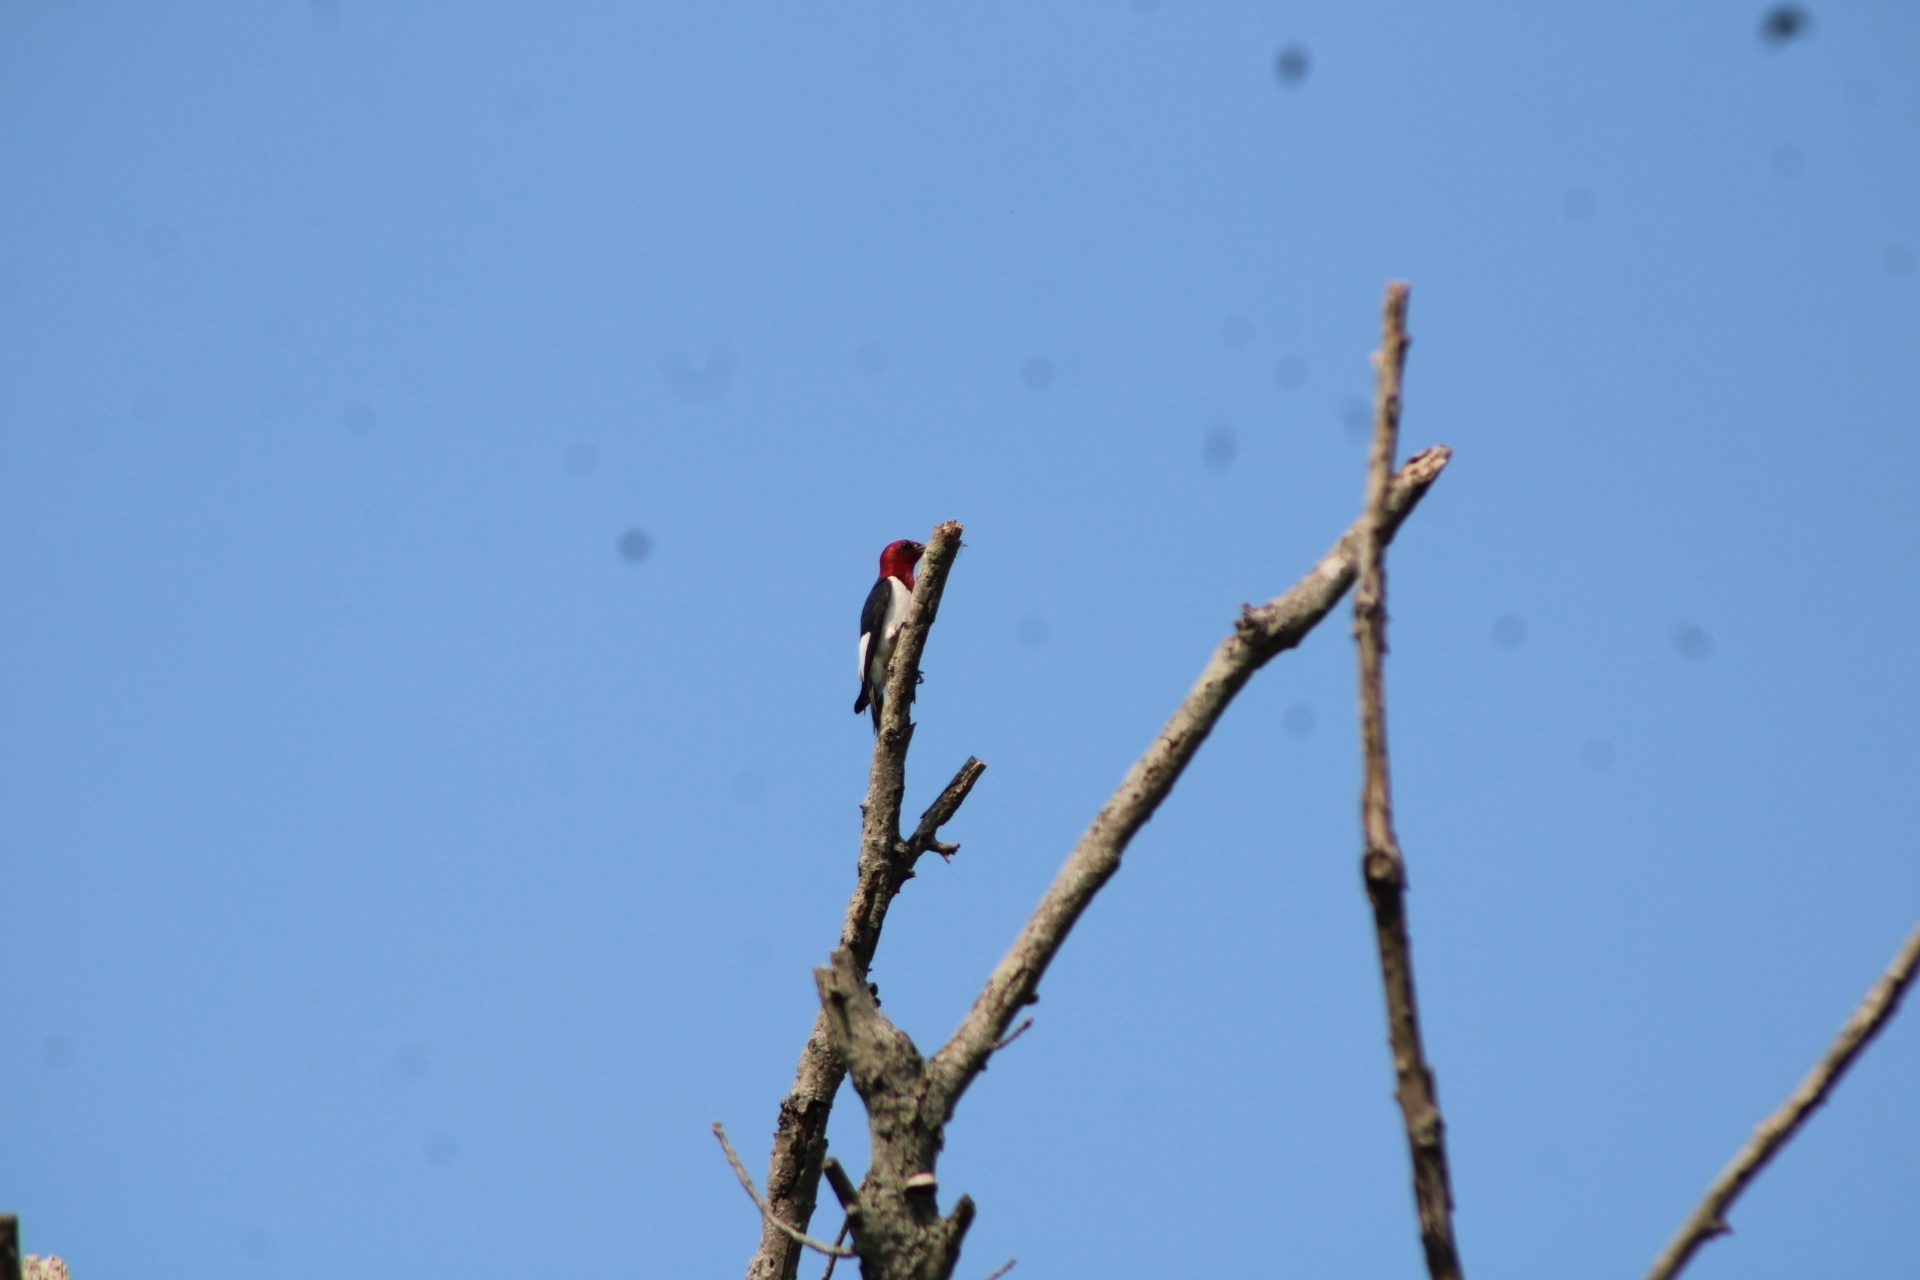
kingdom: Animalia
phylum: Chordata
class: Aves
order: Piciformes
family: Picidae
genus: Melanerpes
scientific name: Melanerpes erythrocephalus
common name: Red-headed woodpecker
